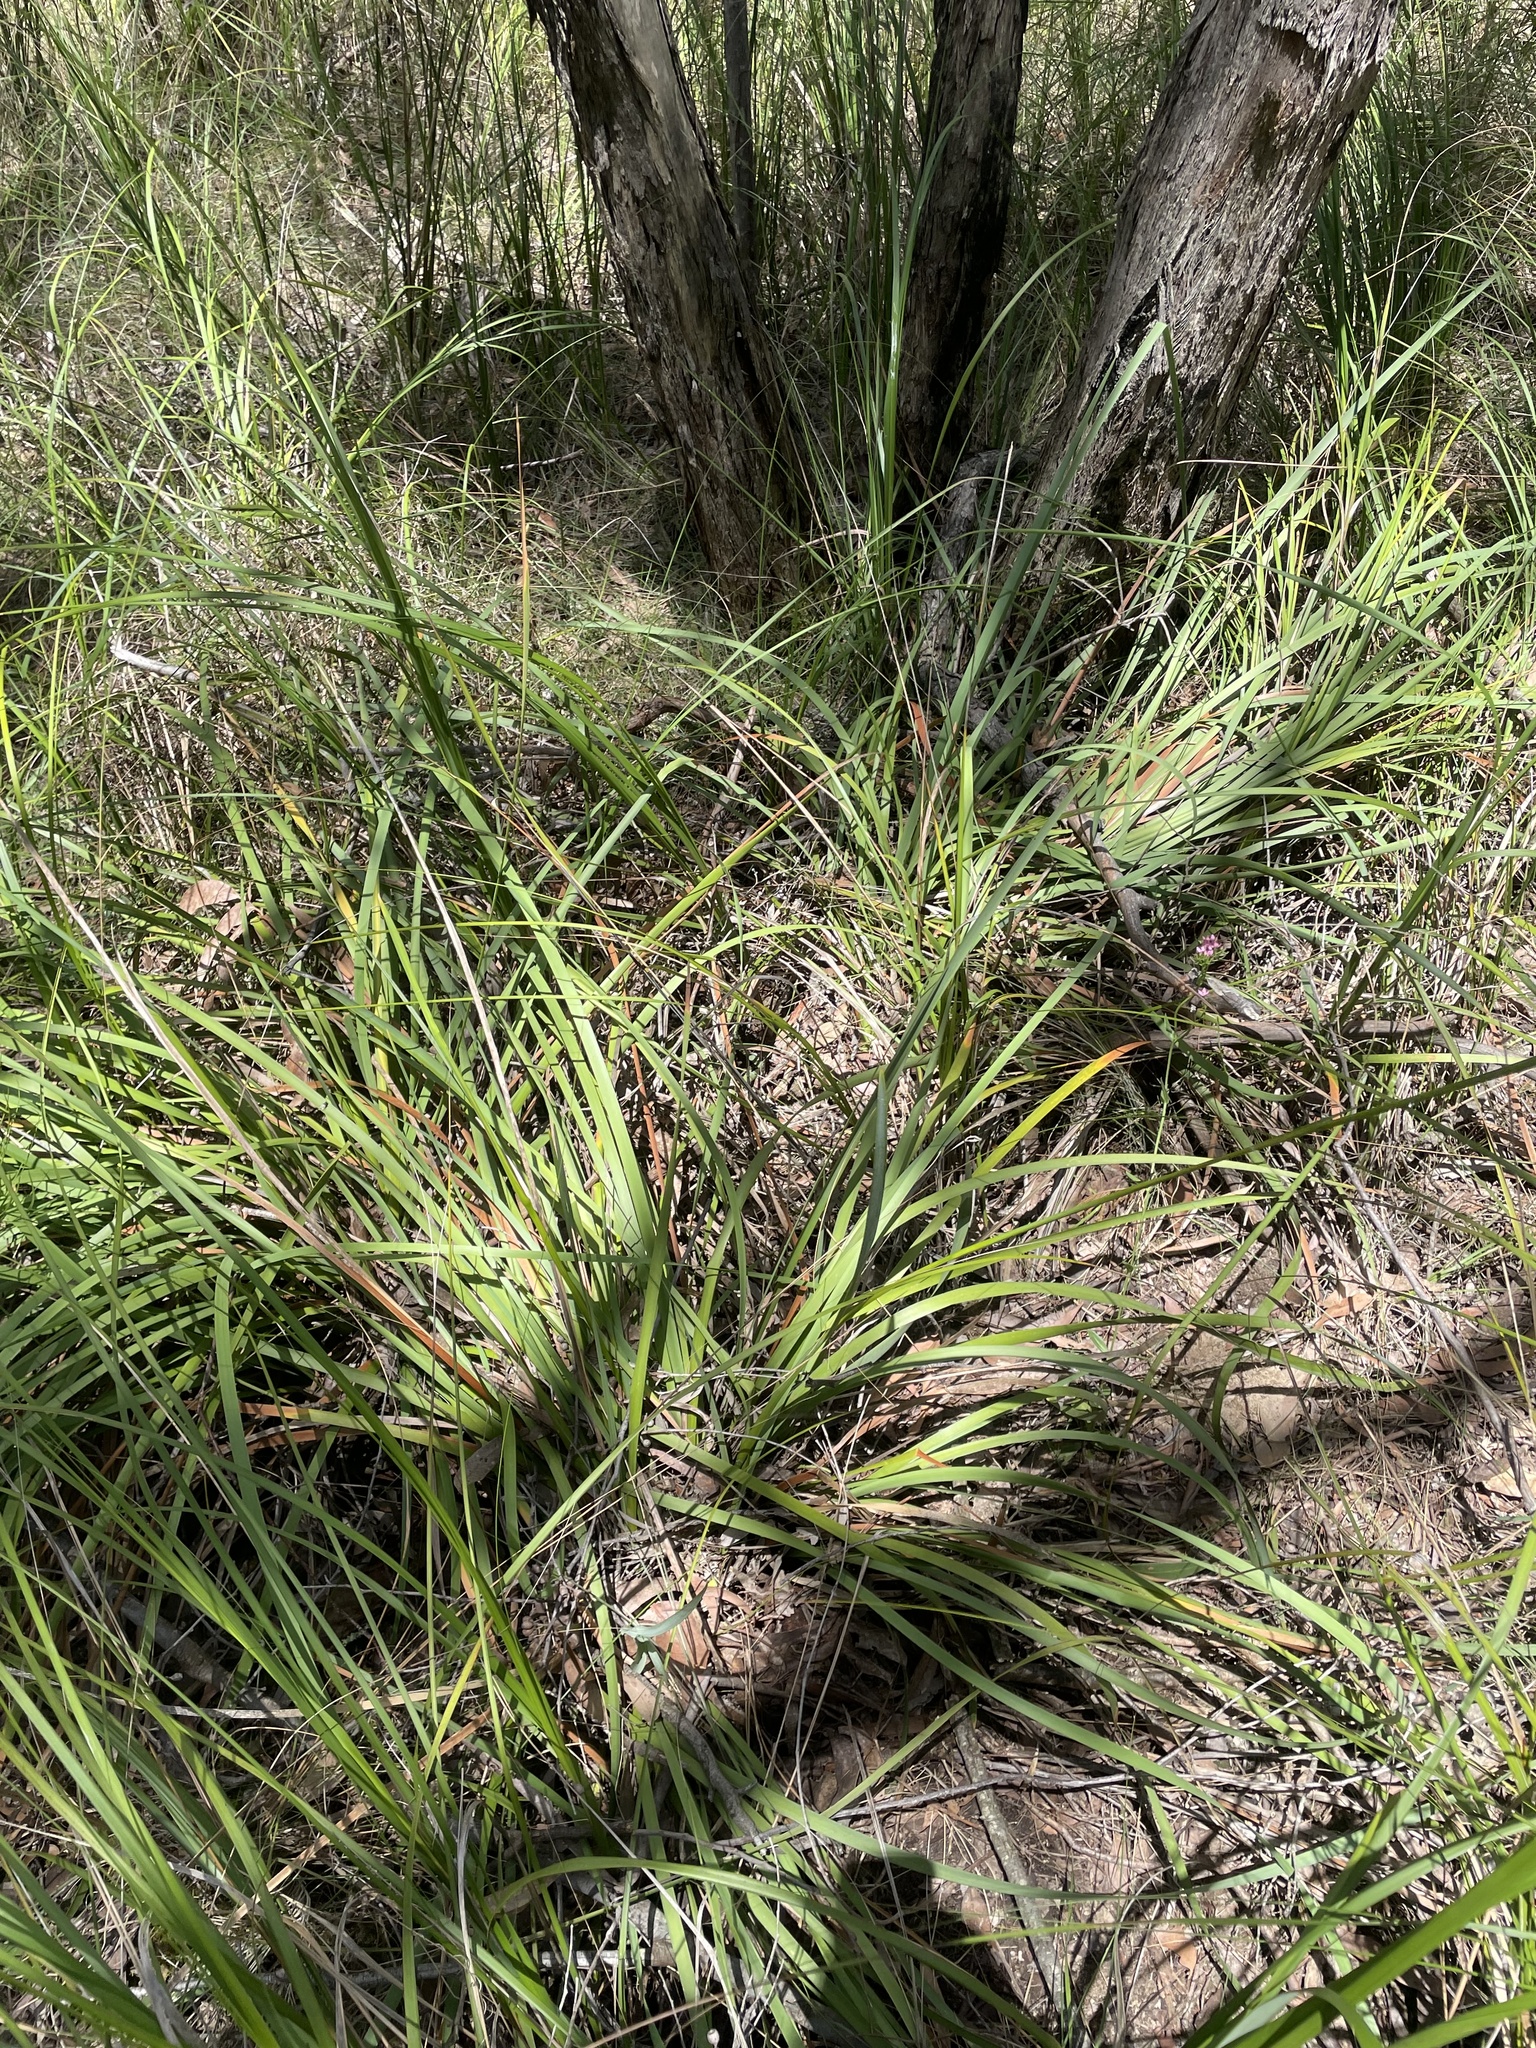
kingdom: Plantae
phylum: Tracheophyta
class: Liliopsida
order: Asparagales
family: Iridaceae
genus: Diplarrena
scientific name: Diplarrena moraea
